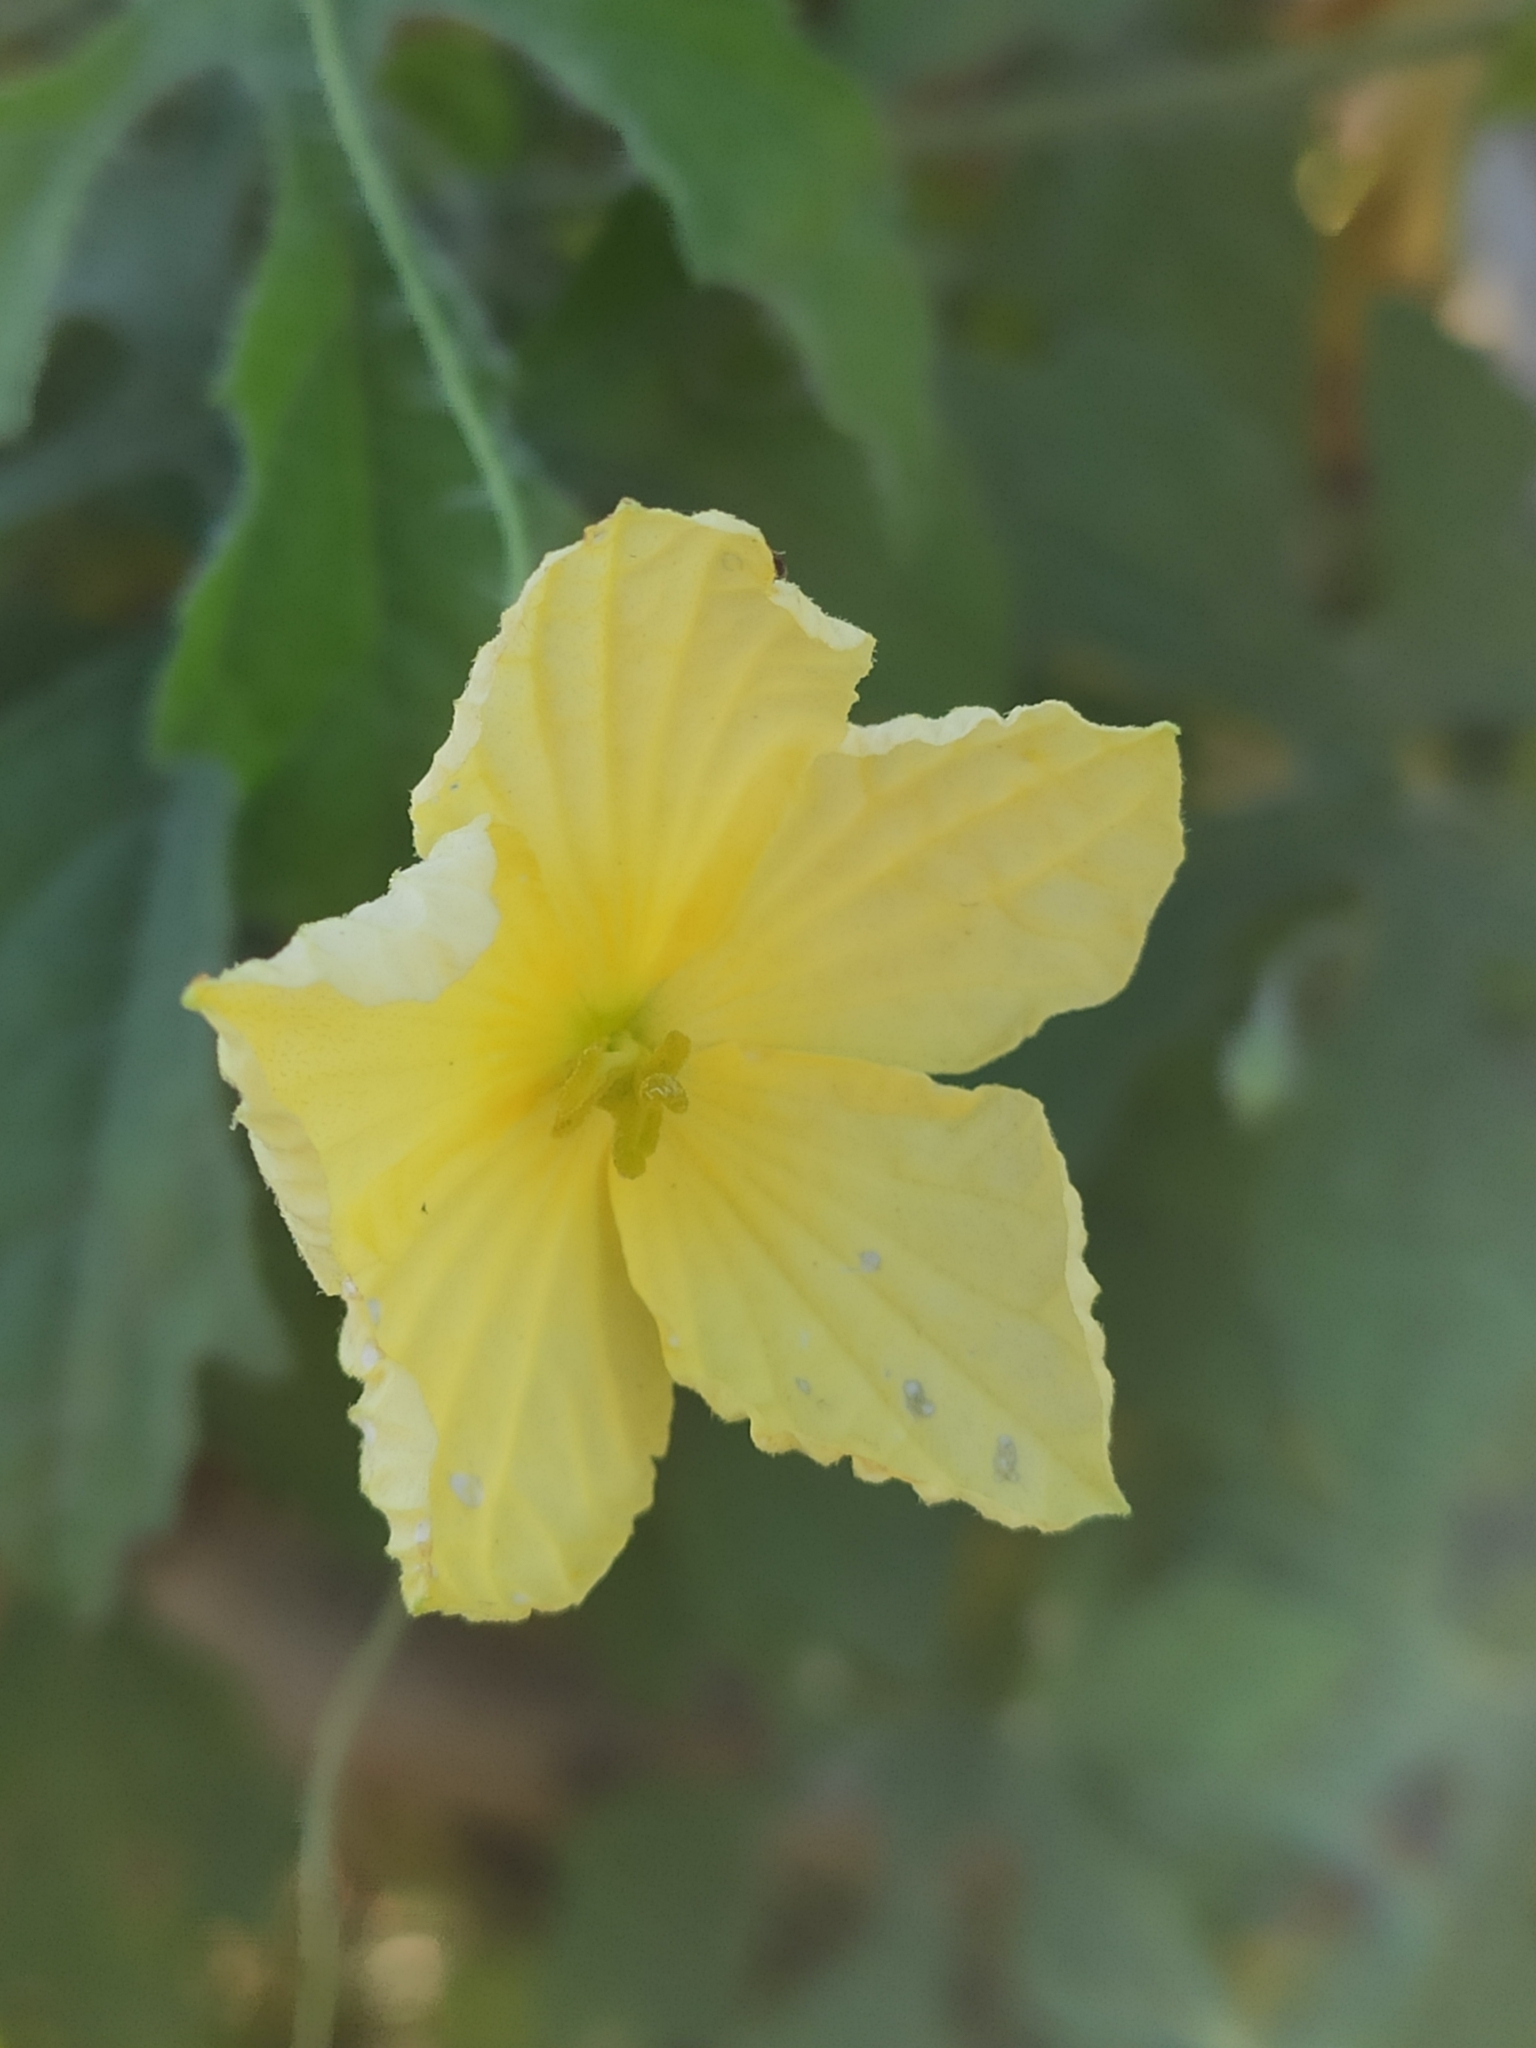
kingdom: Plantae
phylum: Tracheophyta
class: Magnoliopsida
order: Cucurbitales
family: Cucurbitaceae
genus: Momordica
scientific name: Momordica charantia
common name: Balsampear
